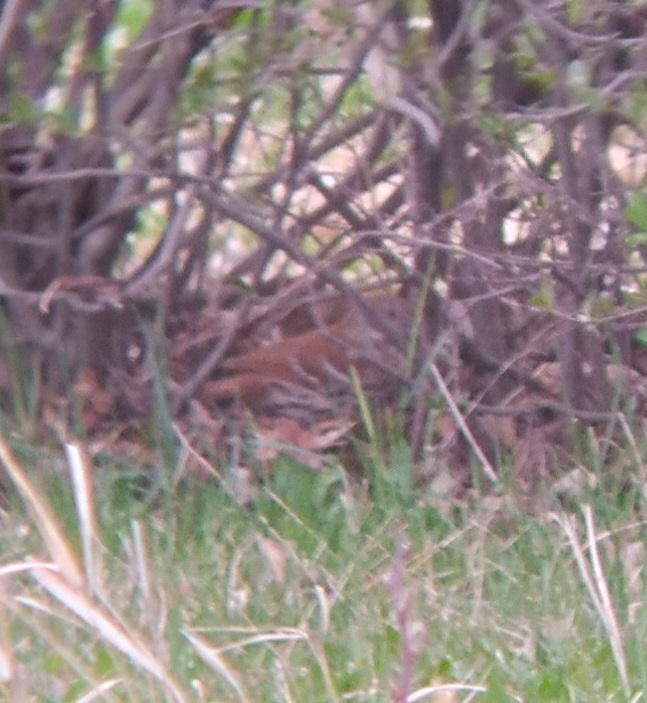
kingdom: Animalia
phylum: Chordata
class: Aves
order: Passeriformes
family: Mimidae
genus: Toxostoma
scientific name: Toxostoma rufum
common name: Brown thrasher
